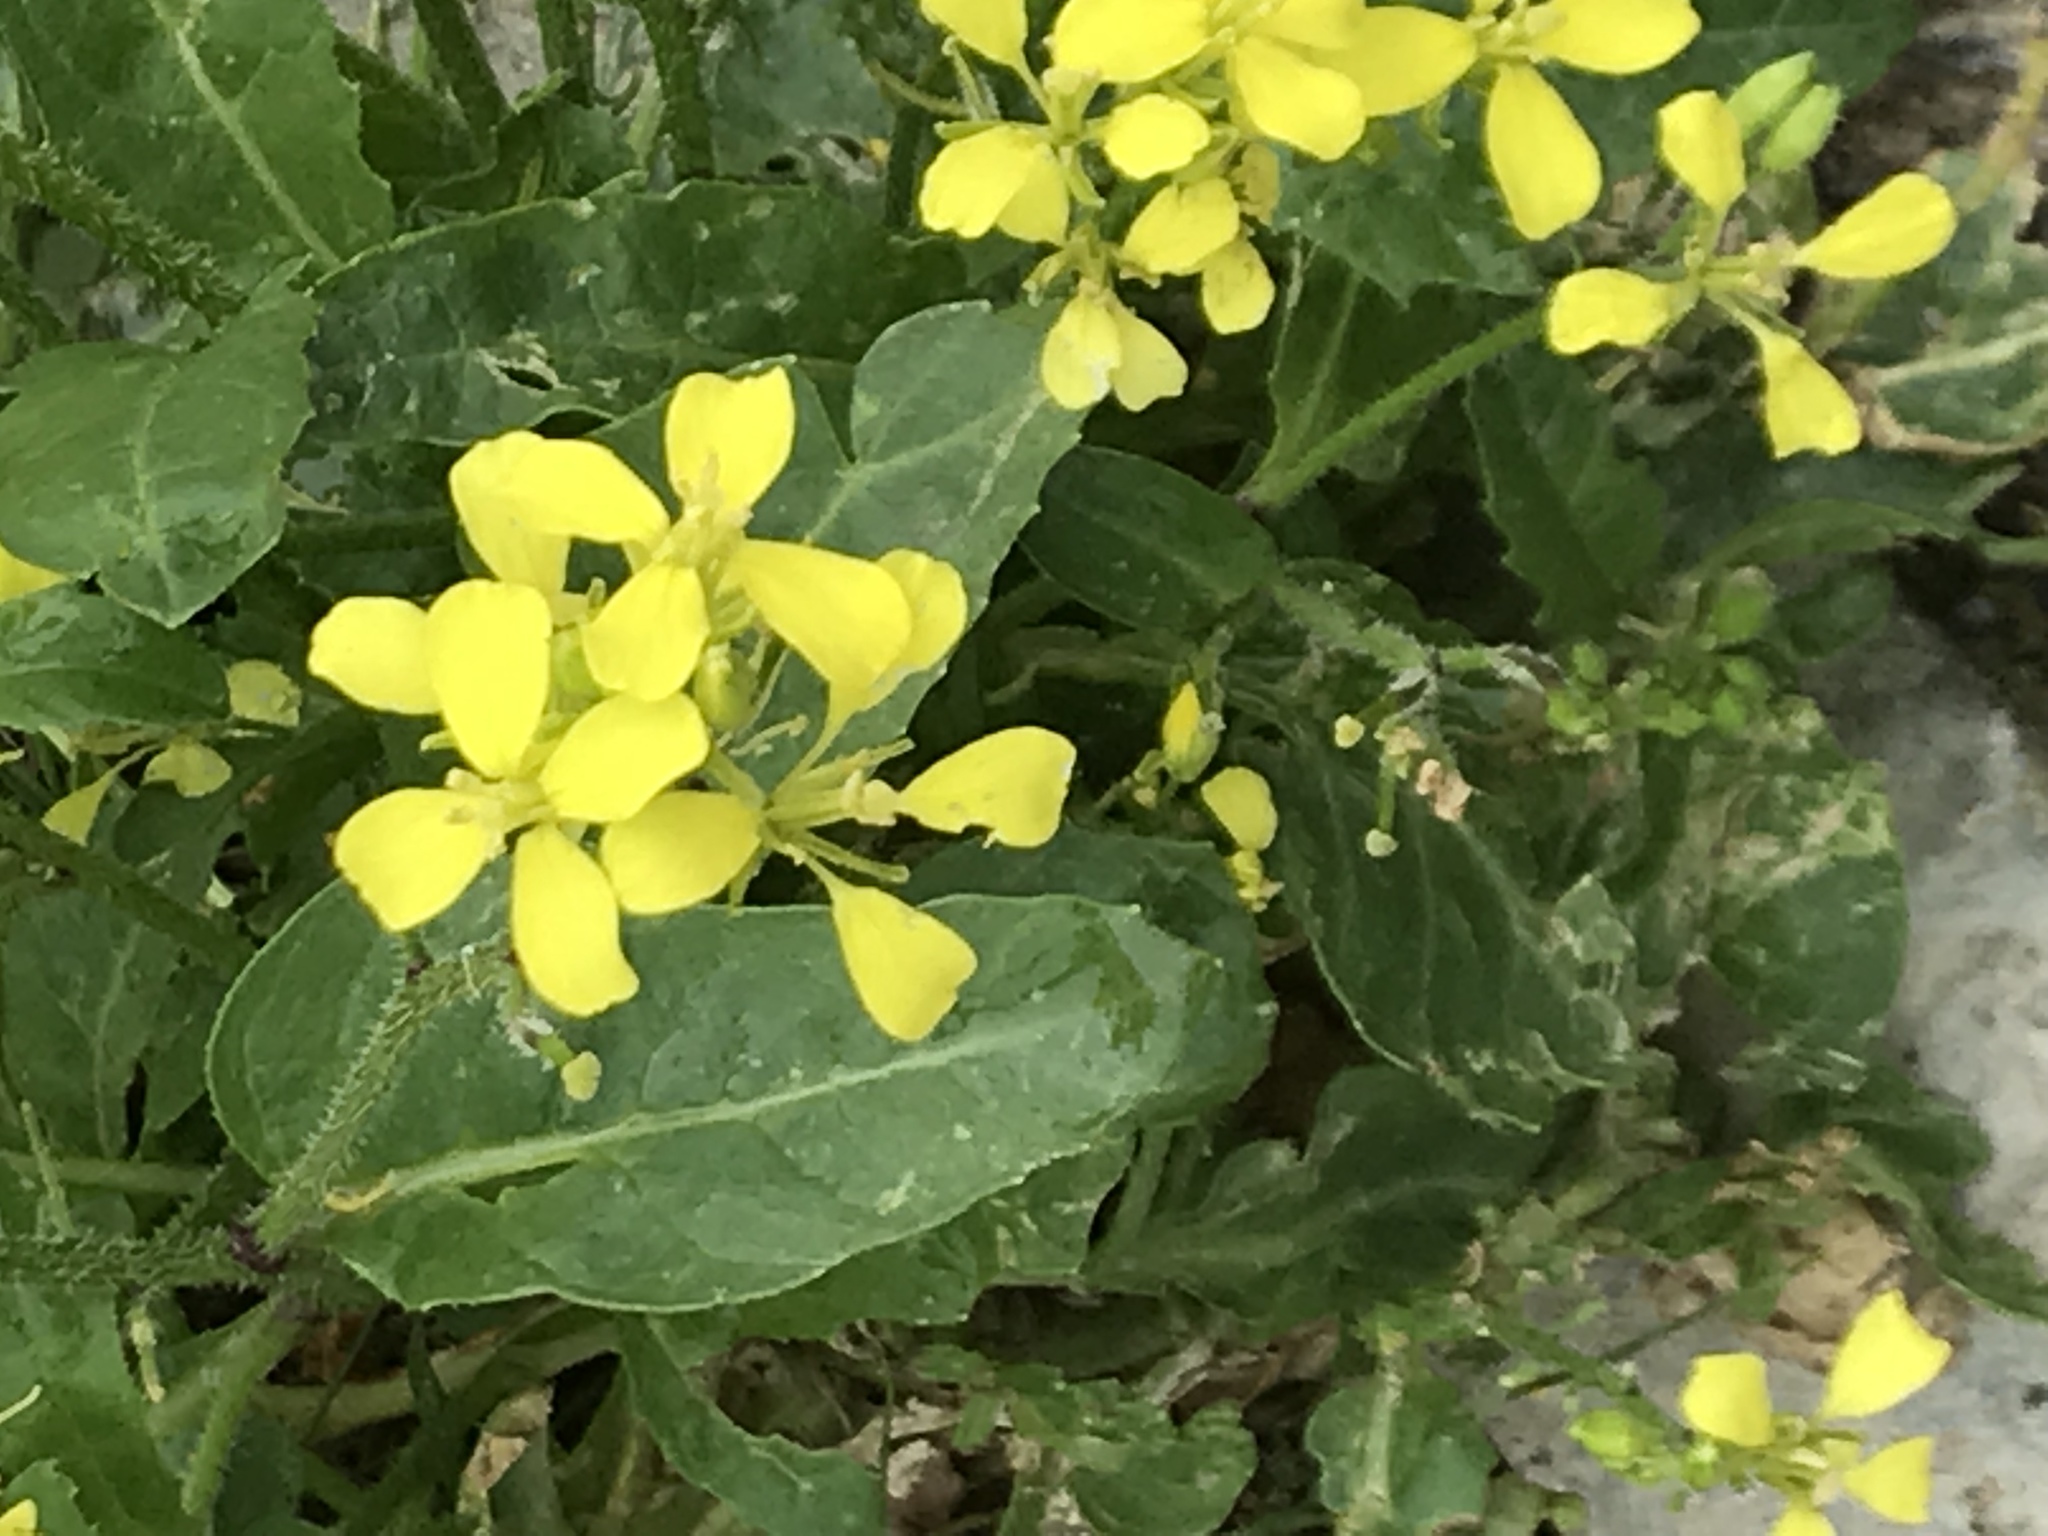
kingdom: Plantae
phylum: Tracheophyta
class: Magnoliopsida
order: Brassicales
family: Brassicaceae
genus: Sinapis
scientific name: Sinapis arvensis
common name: Charlock
